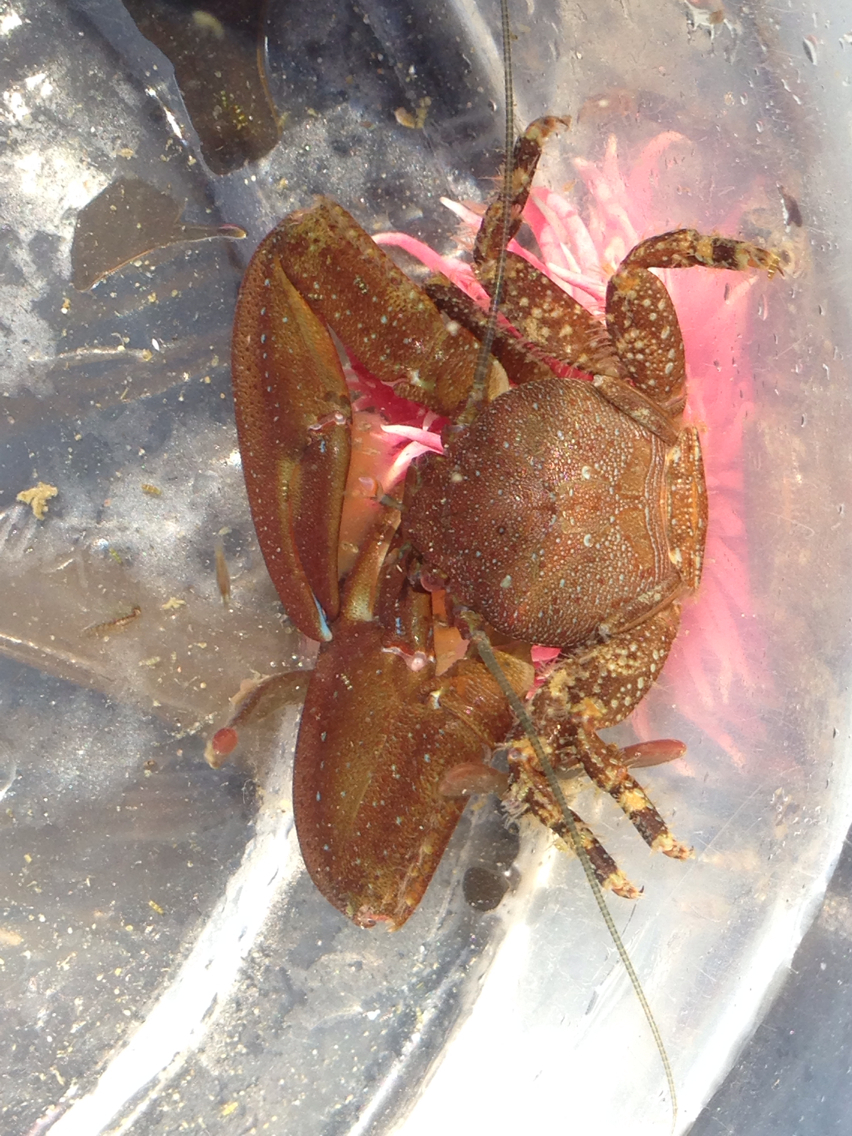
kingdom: Animalia
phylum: Arthropoda
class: Malacostraca
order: Decapoda
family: Porcellanidae
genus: Petrolisthes
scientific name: Petrolisthes manimaculis
